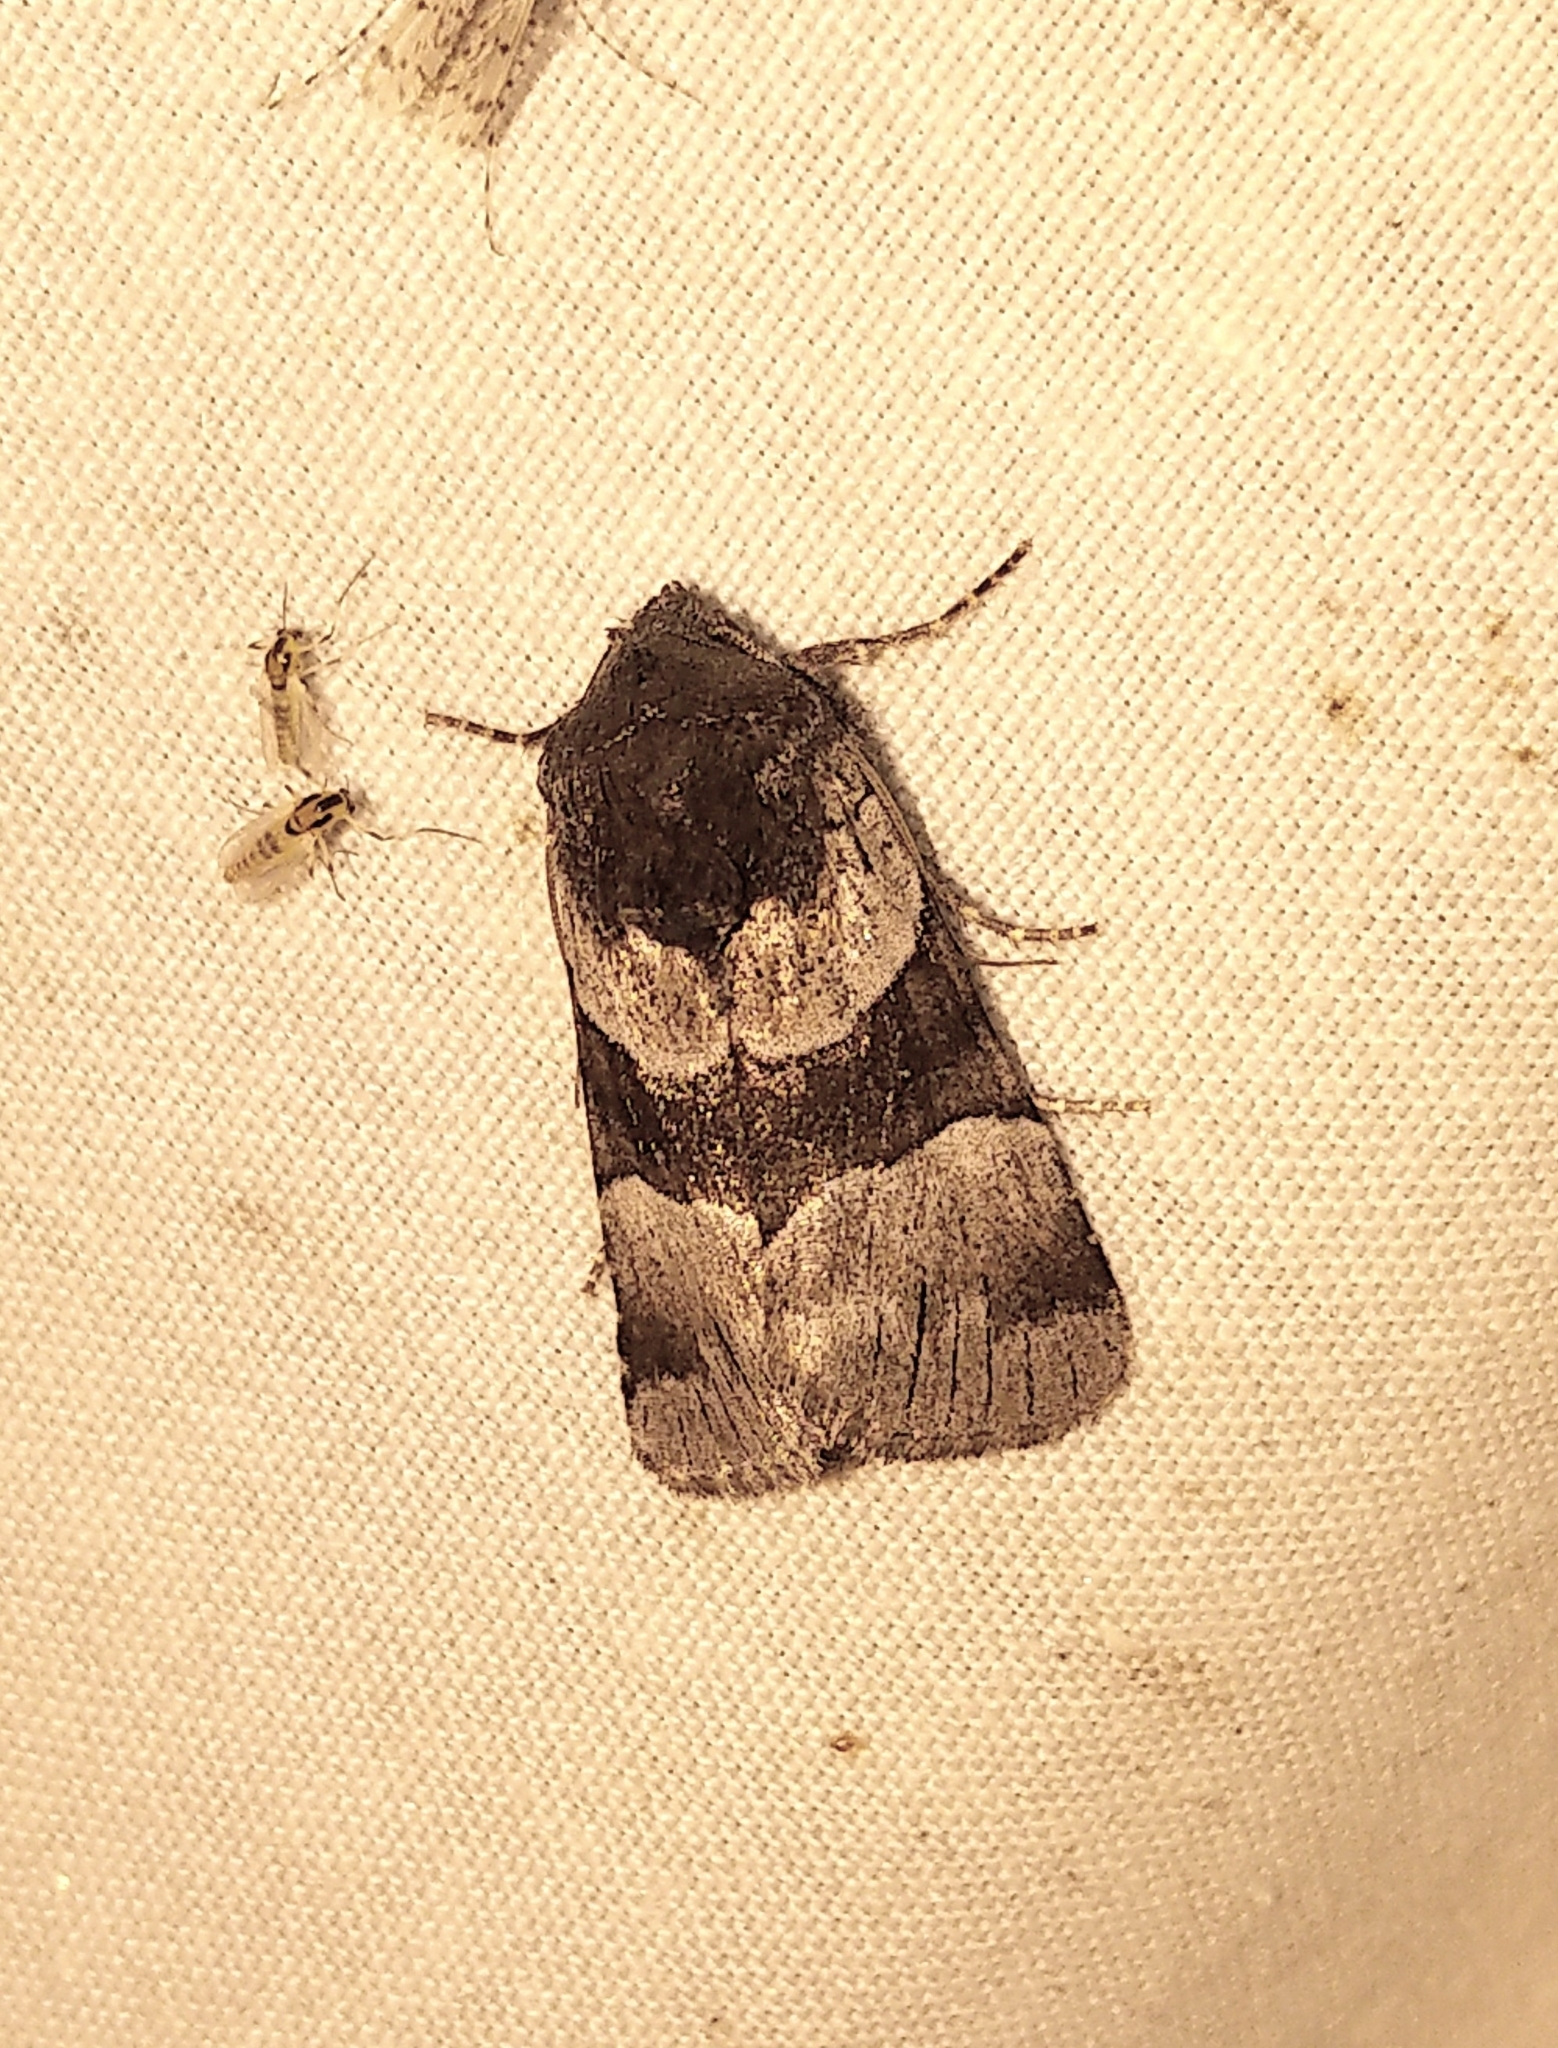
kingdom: Animalia
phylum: Arthropoda
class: Insecta
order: Lepidoptera
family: Noctuidae
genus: Sympistis
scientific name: Sympistis piffardi
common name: Three-striped oncocnemis
